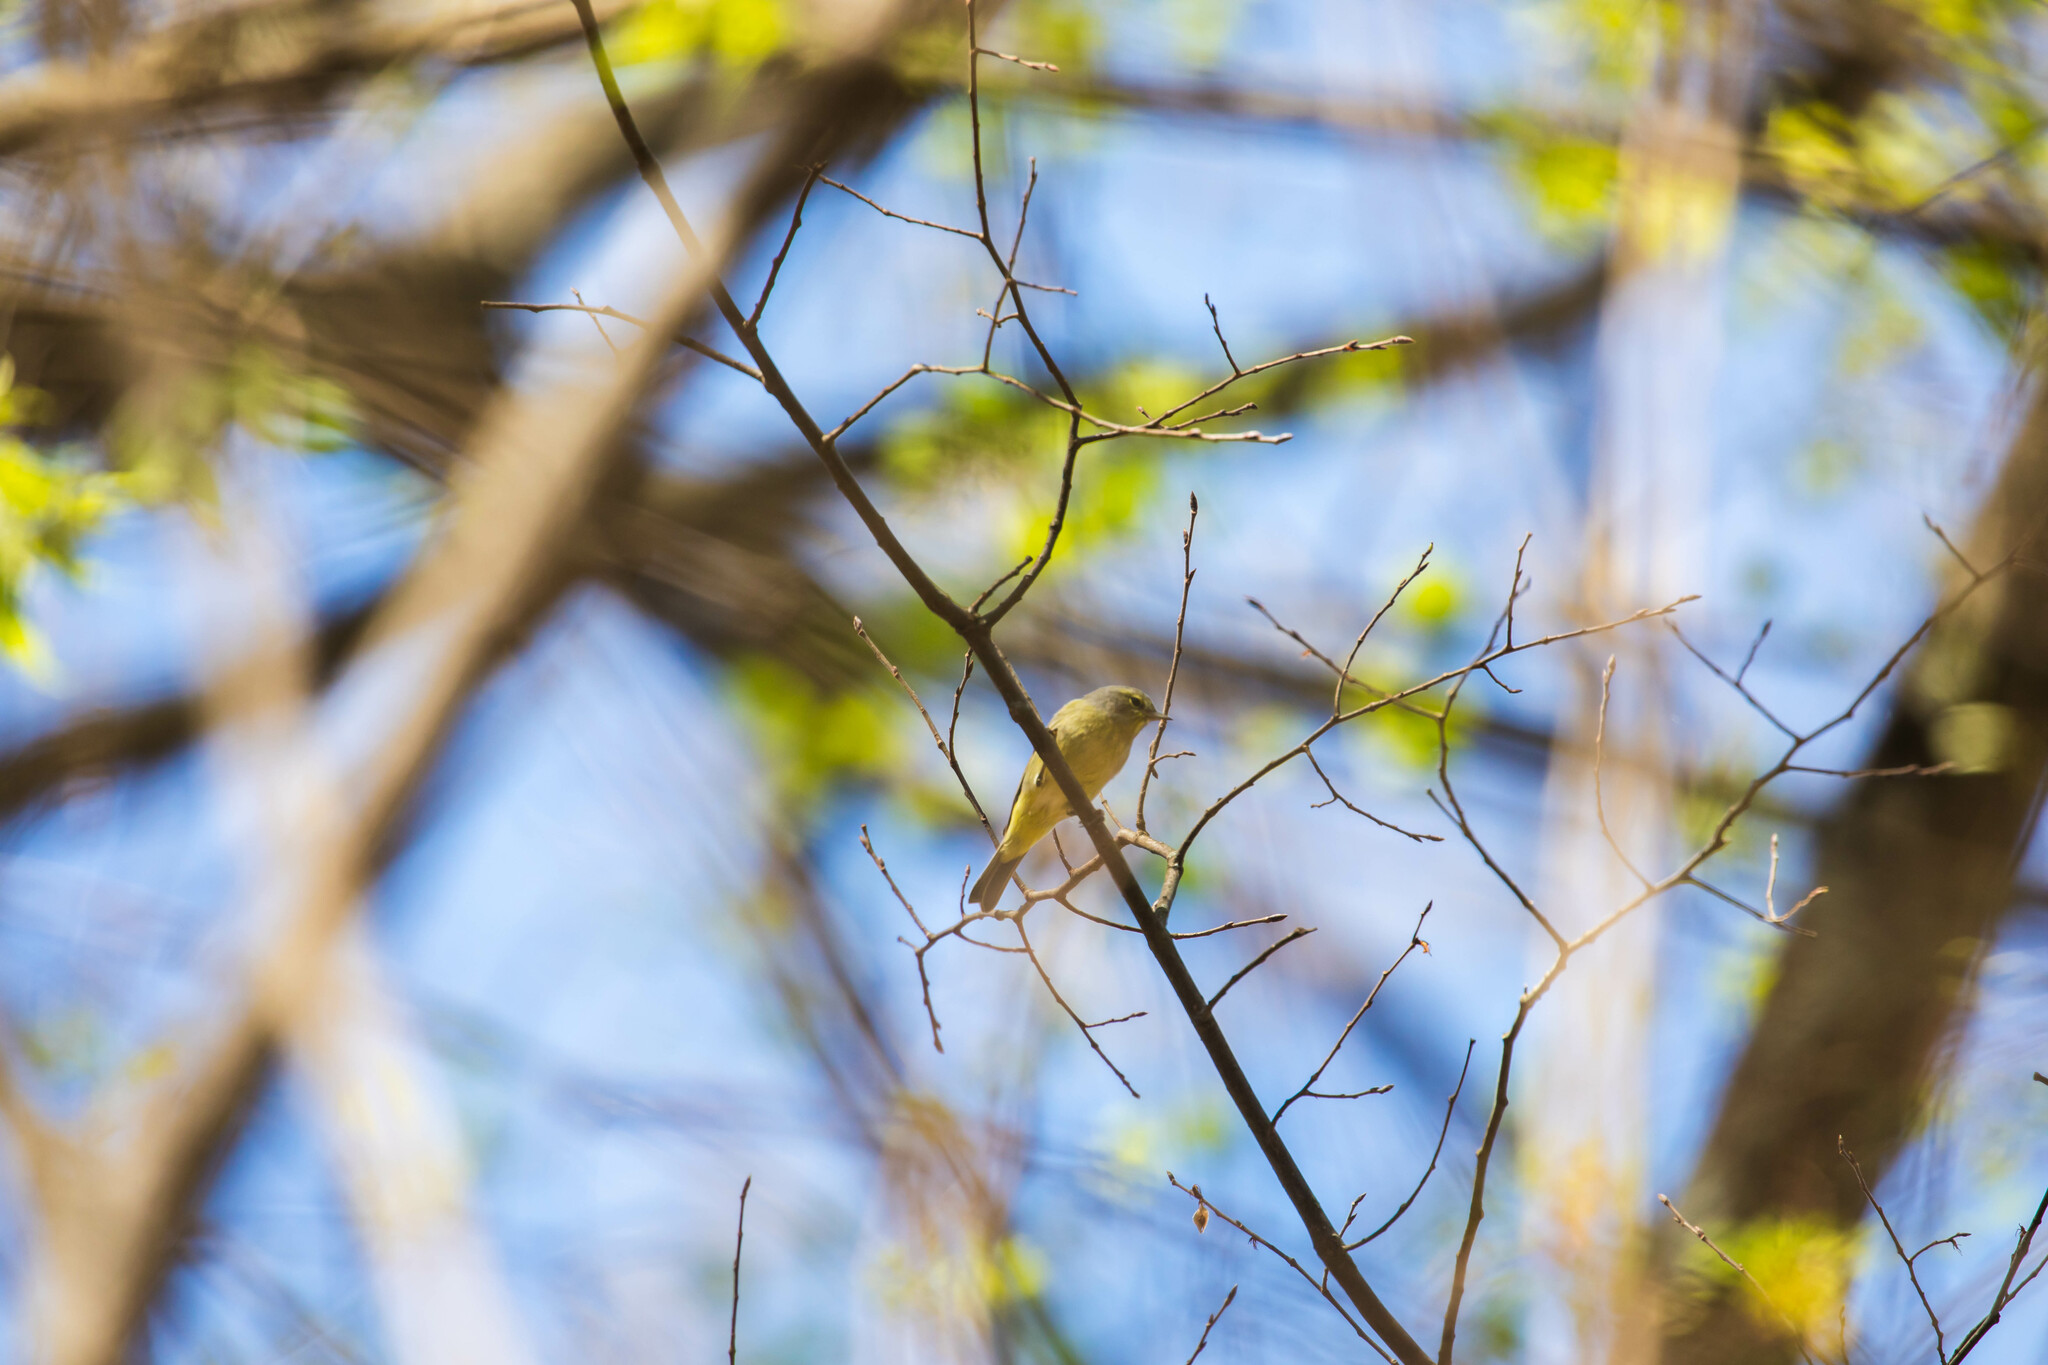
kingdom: Animalia
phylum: Chordata
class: Aves
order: Passeriformes
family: Parulidae
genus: Leiothlypis
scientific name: Leiothlypis celata
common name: Orange-crowned warbler
